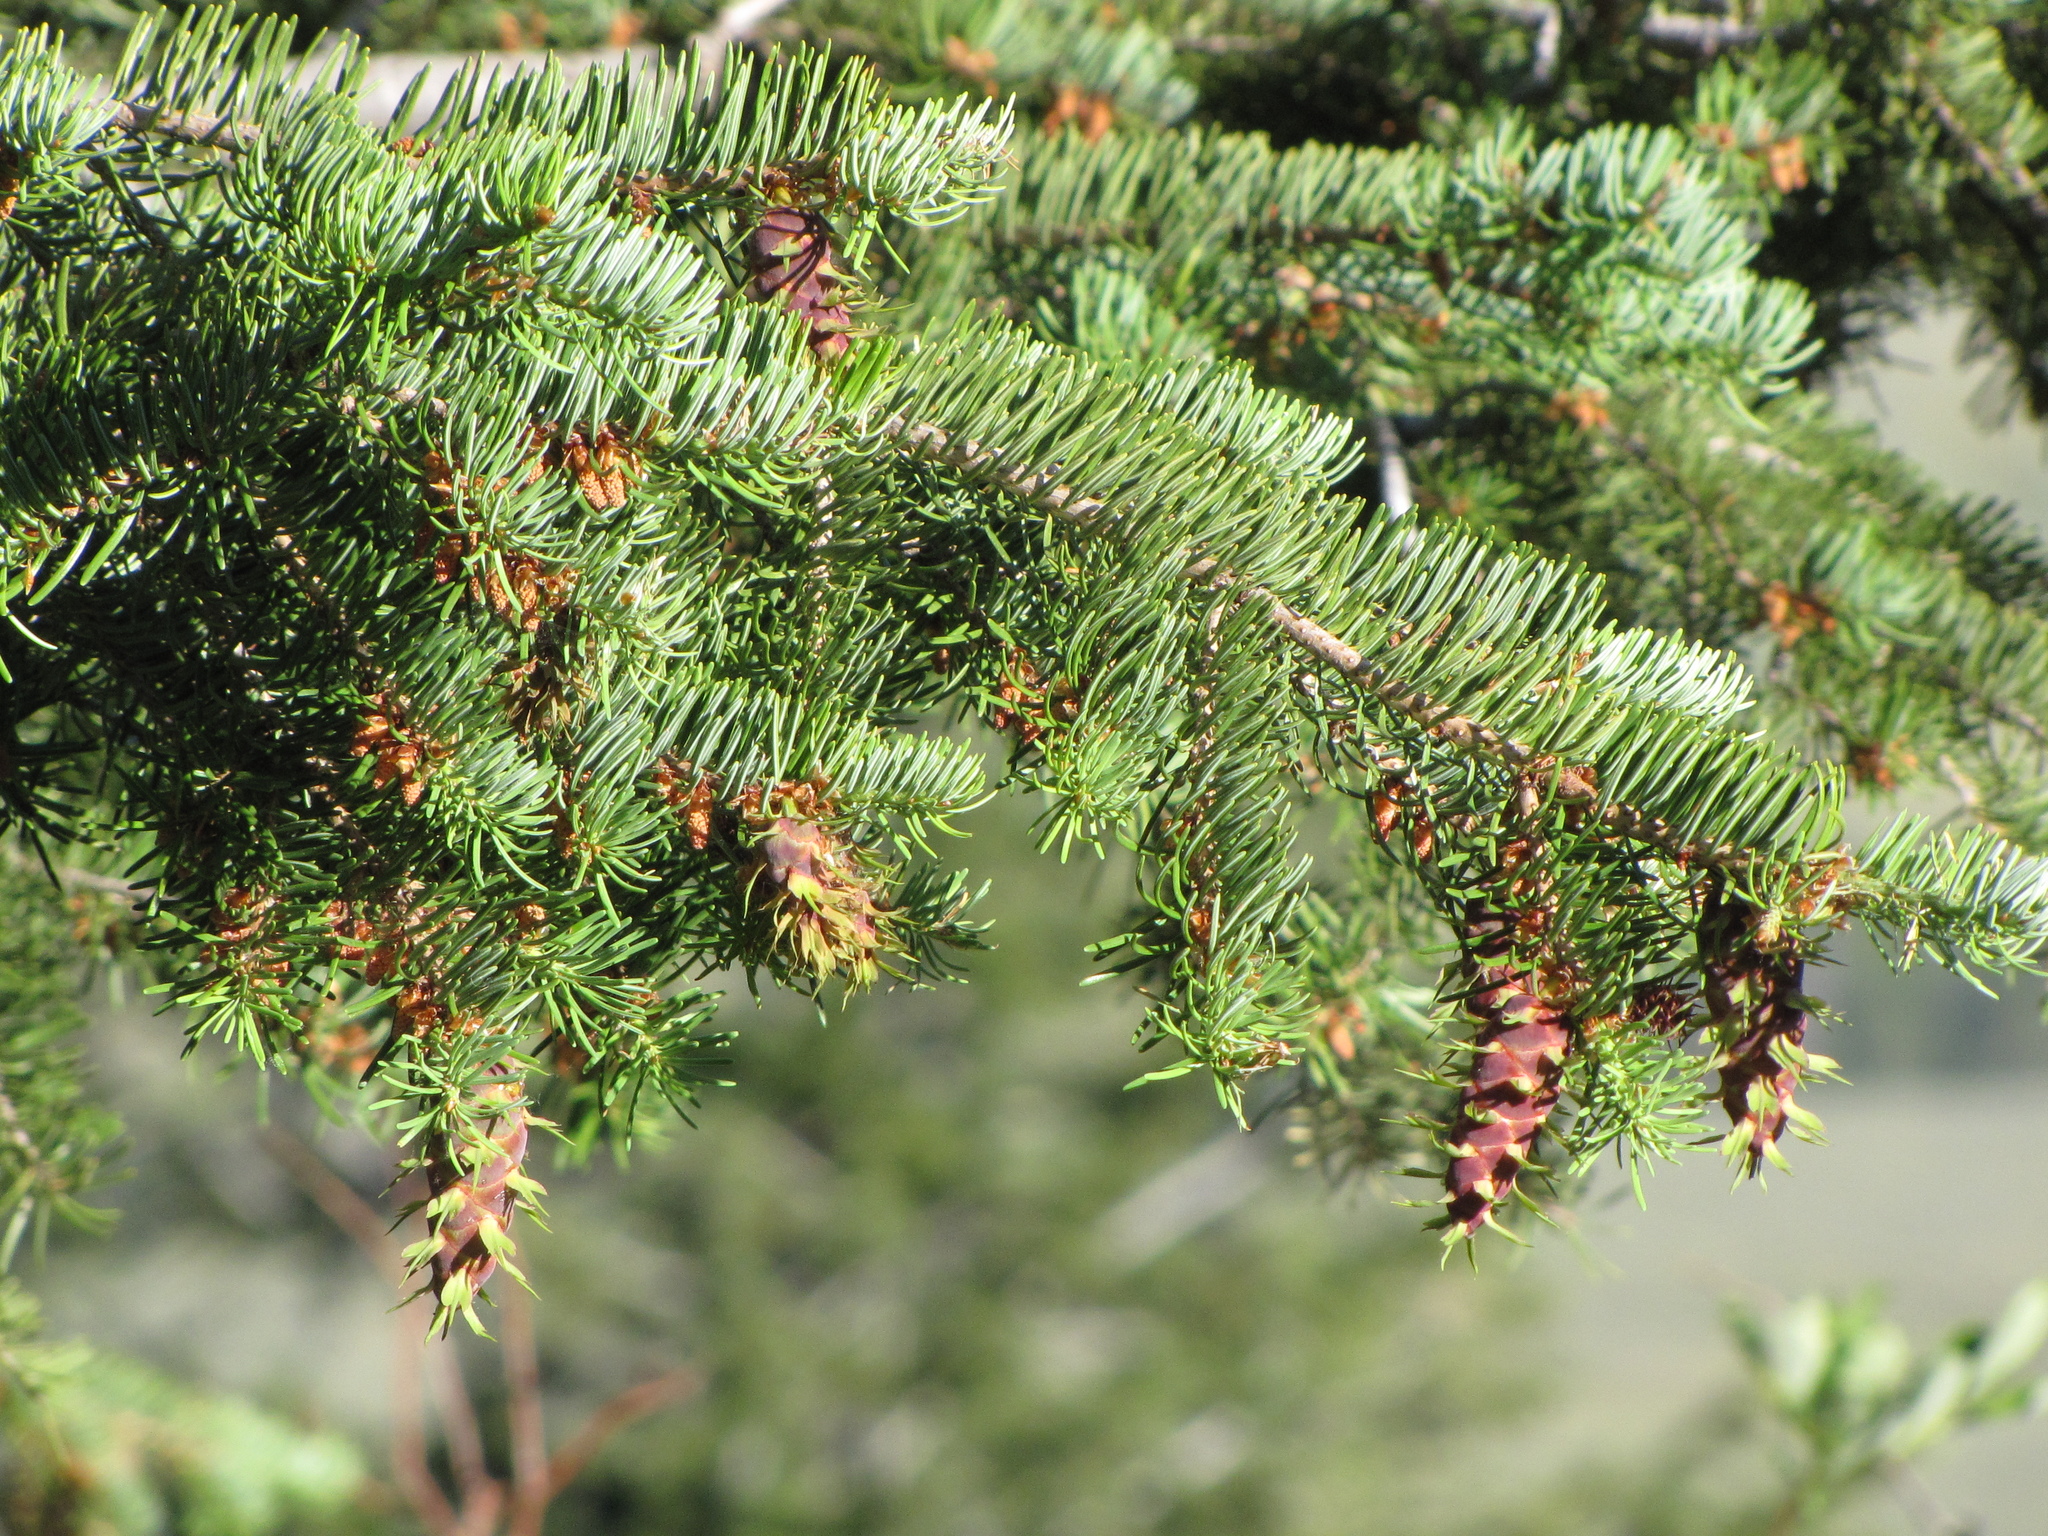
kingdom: Plantae
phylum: Tracheophyta
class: Pinopsida
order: Pinales
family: Pinaceae
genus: Pseudotsuga
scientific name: Pseudotsuga menziesii
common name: Douglas fir
